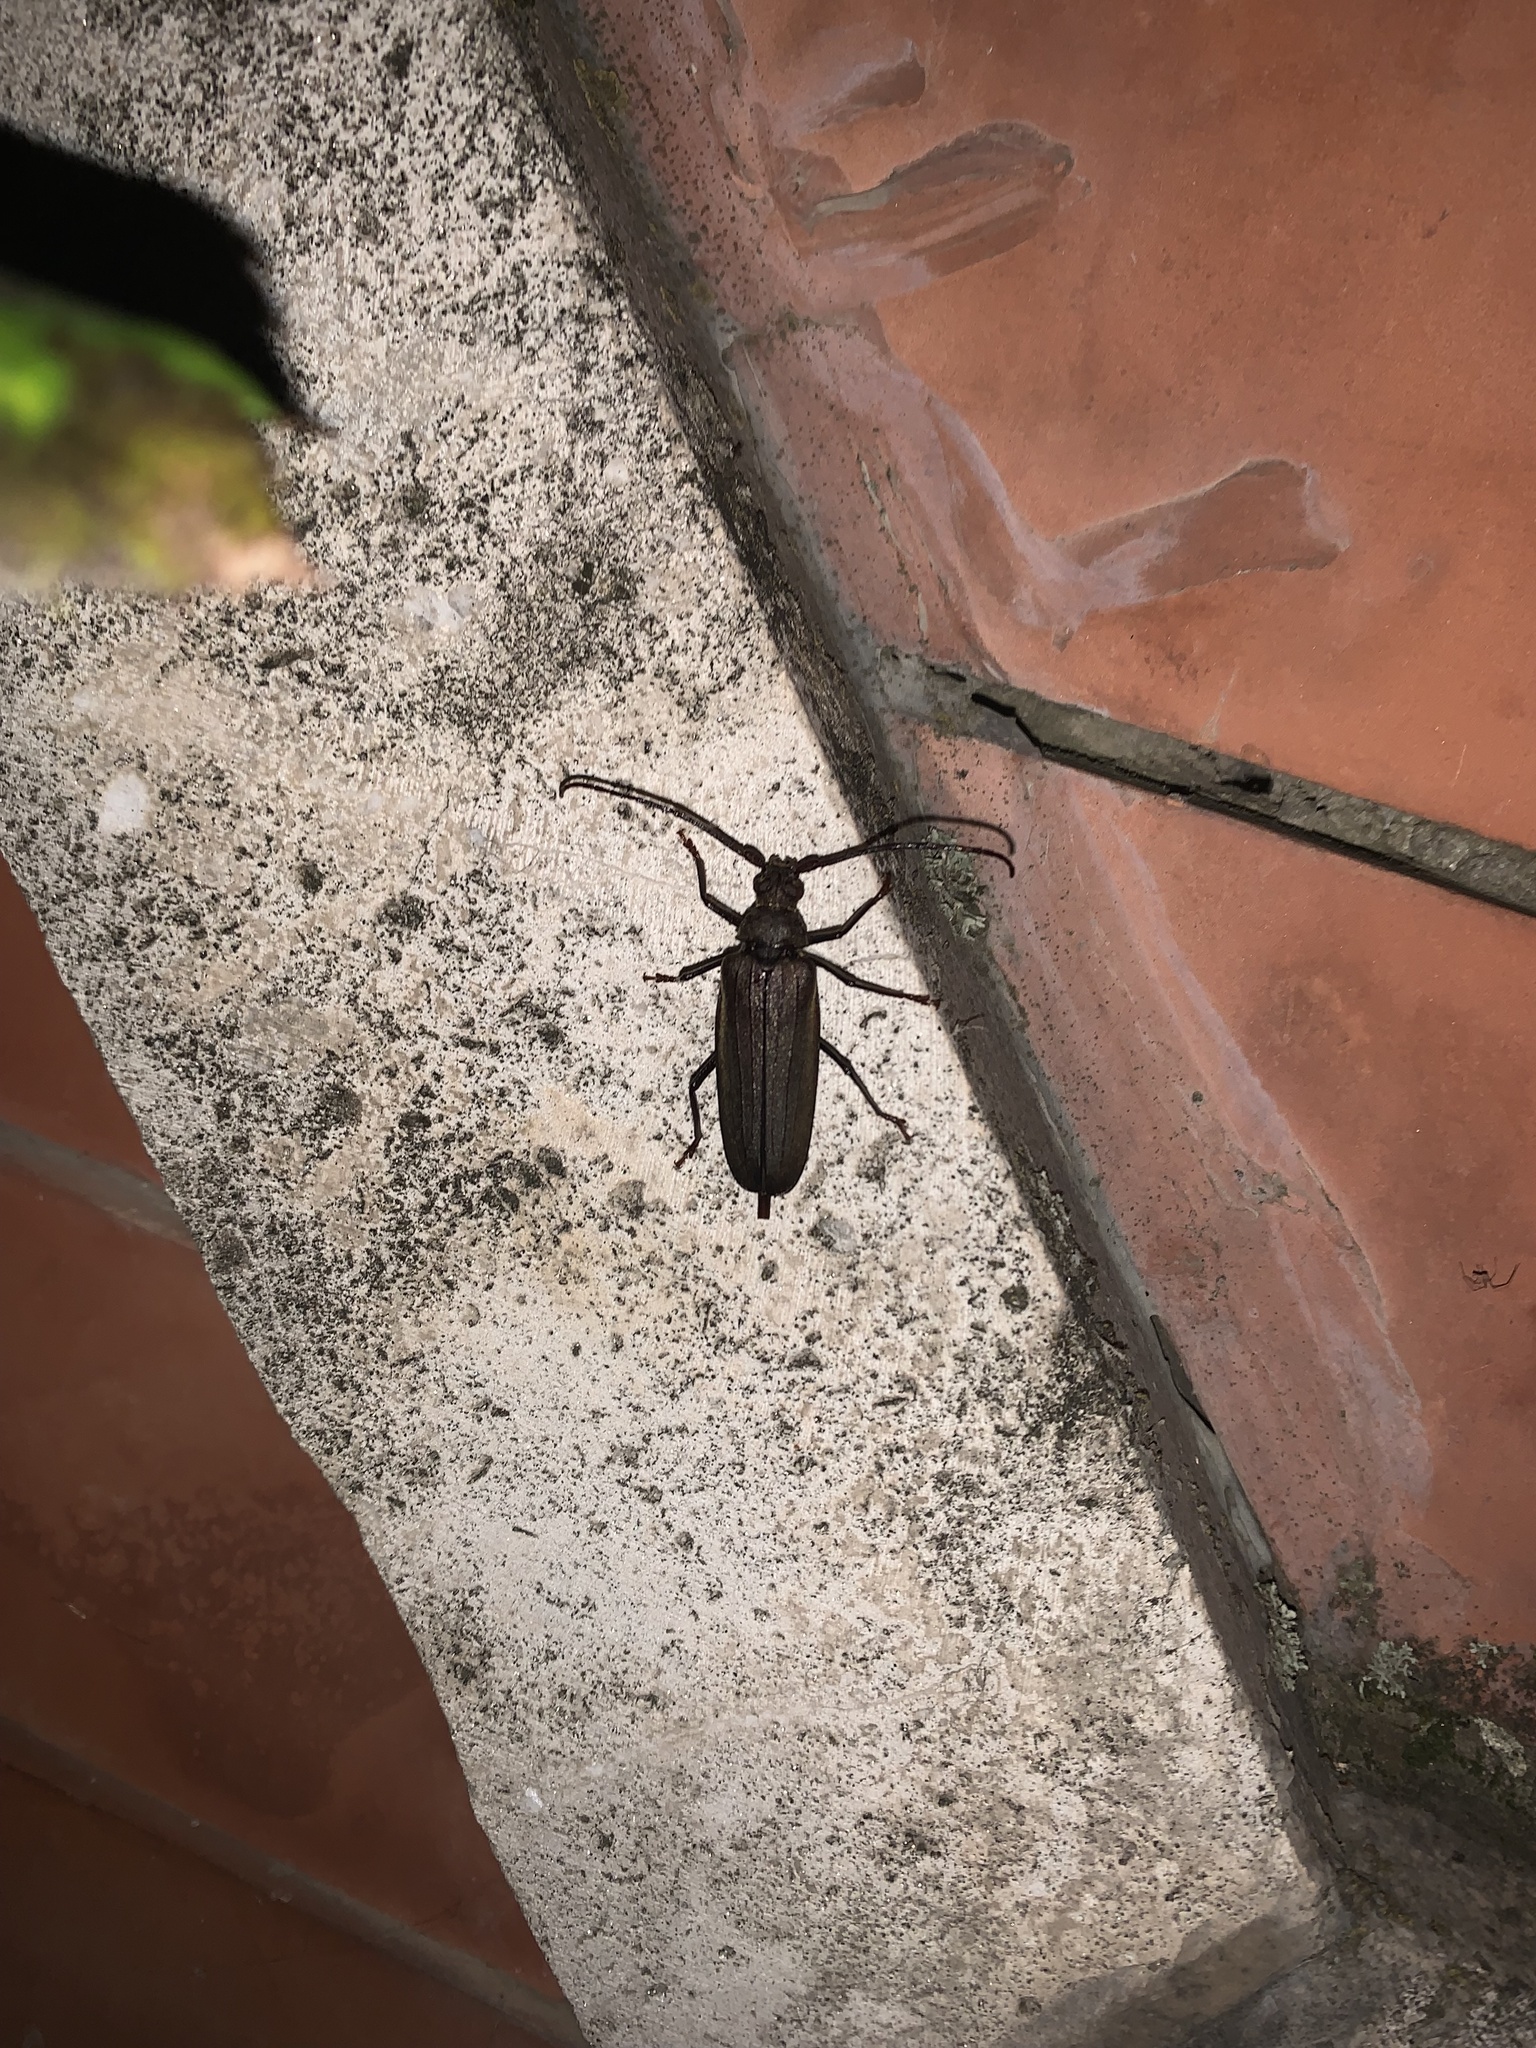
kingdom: Animalia
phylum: Arthropoda
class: Insecta
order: Coleoptera
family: Cerambycidae
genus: Aegosoma
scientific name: Aegosoma scabricorne
